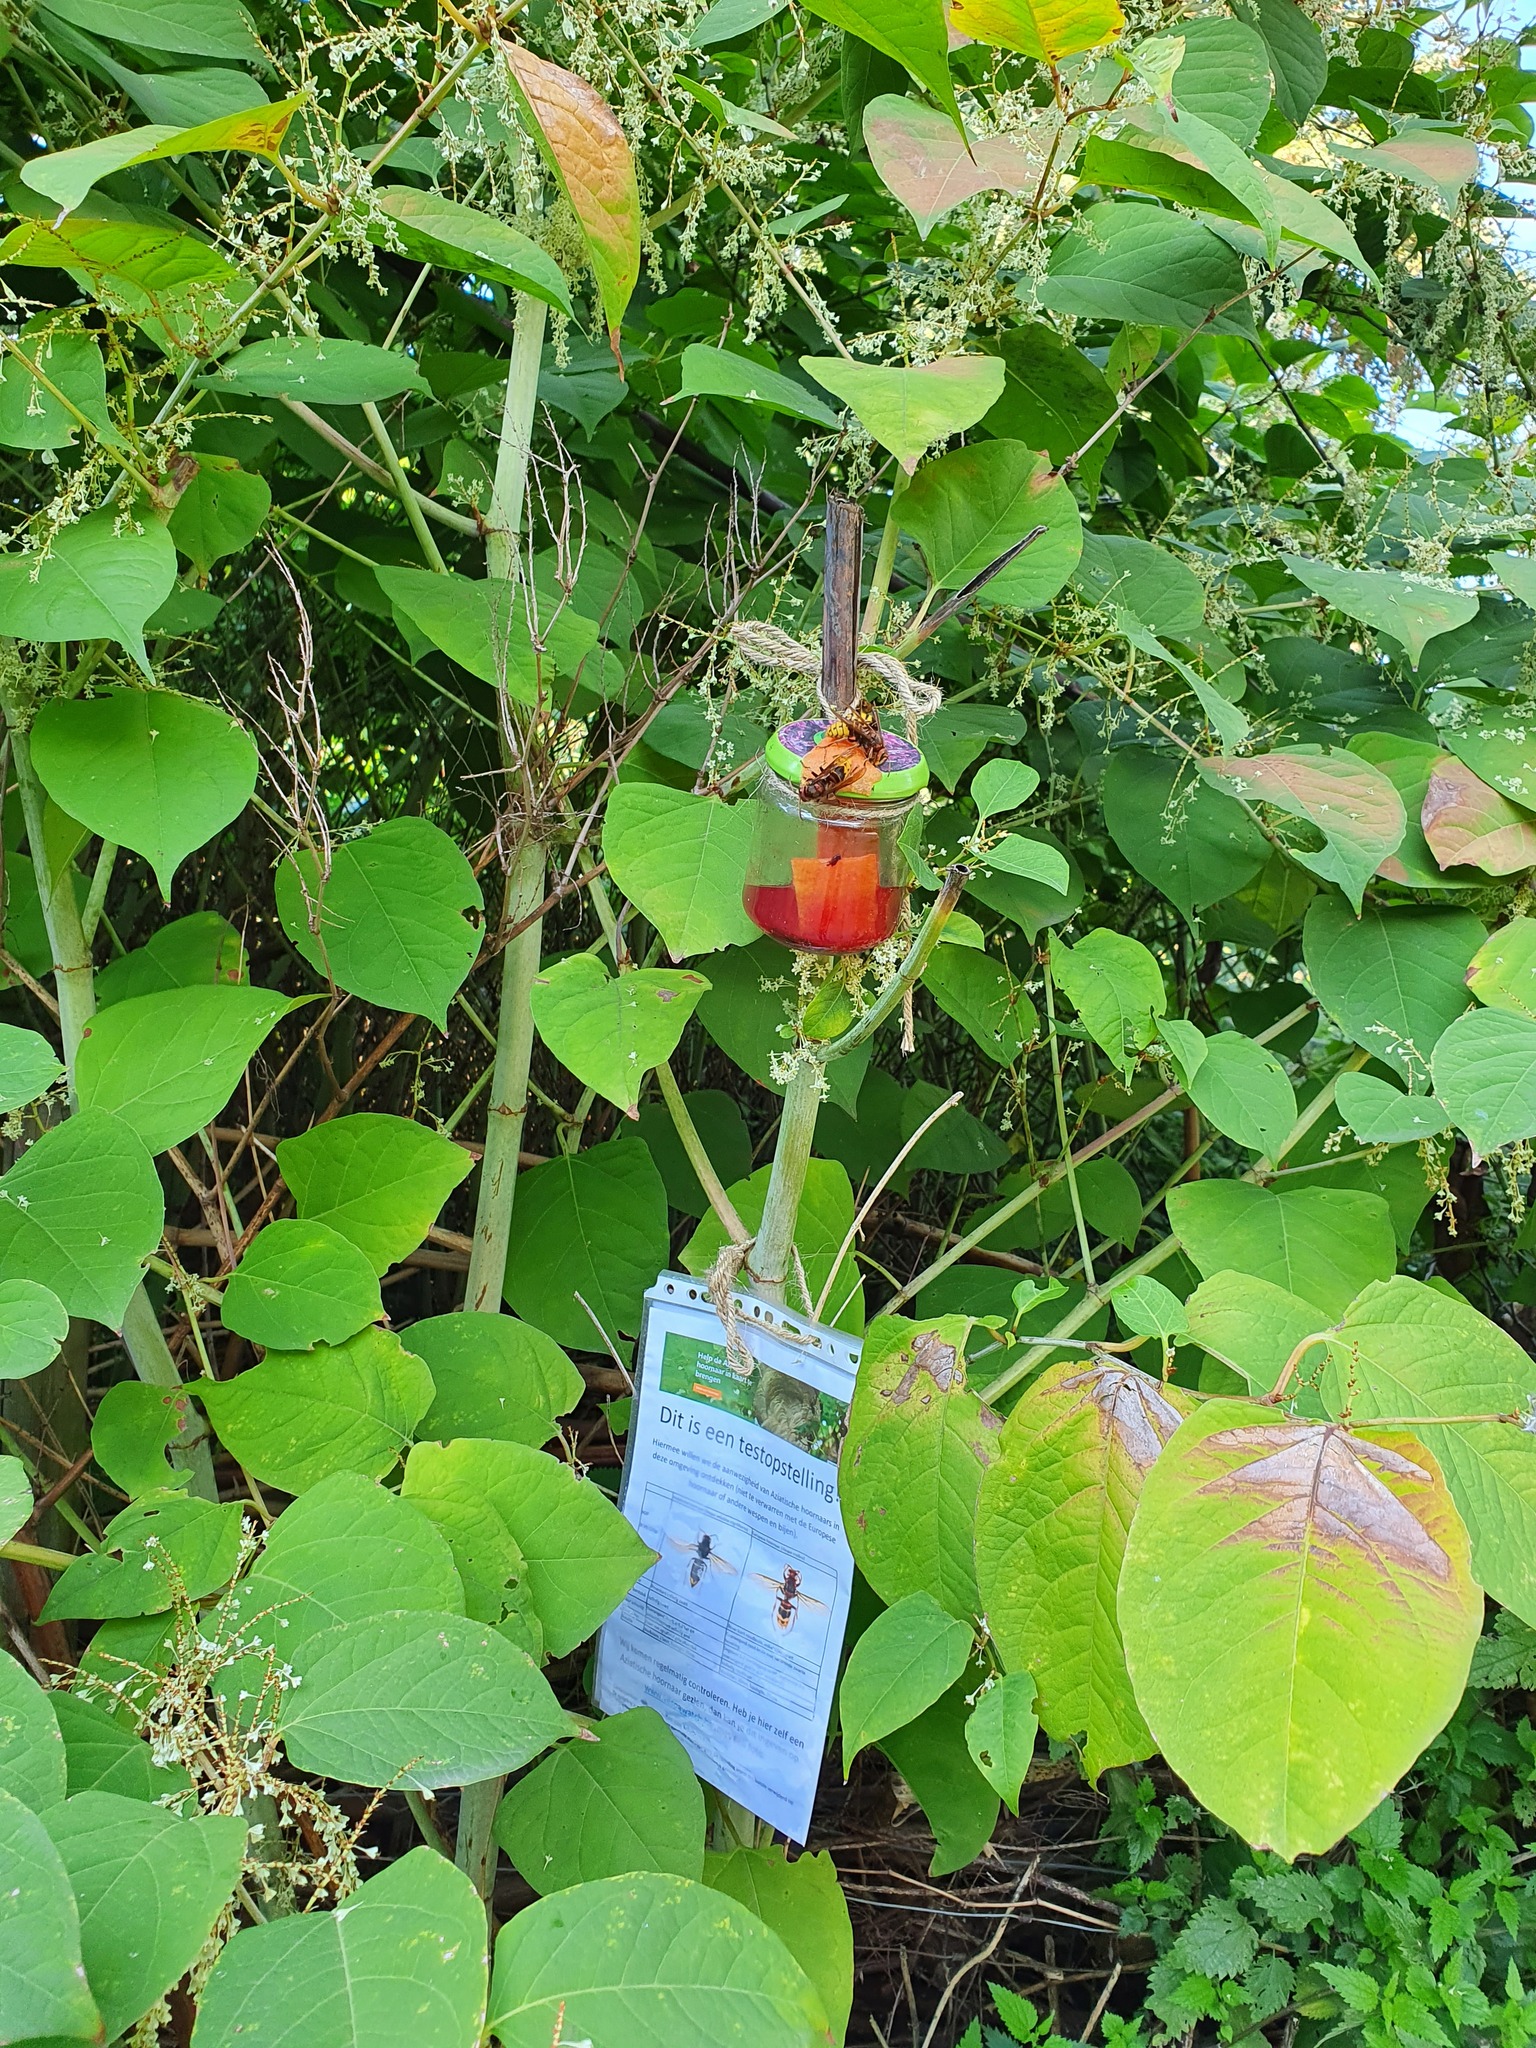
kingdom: Animalia
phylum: Arthropoda
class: Insecta
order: Hymenoptera
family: Vespidae
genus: Vespa
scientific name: Vespa crabro
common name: Hornet
